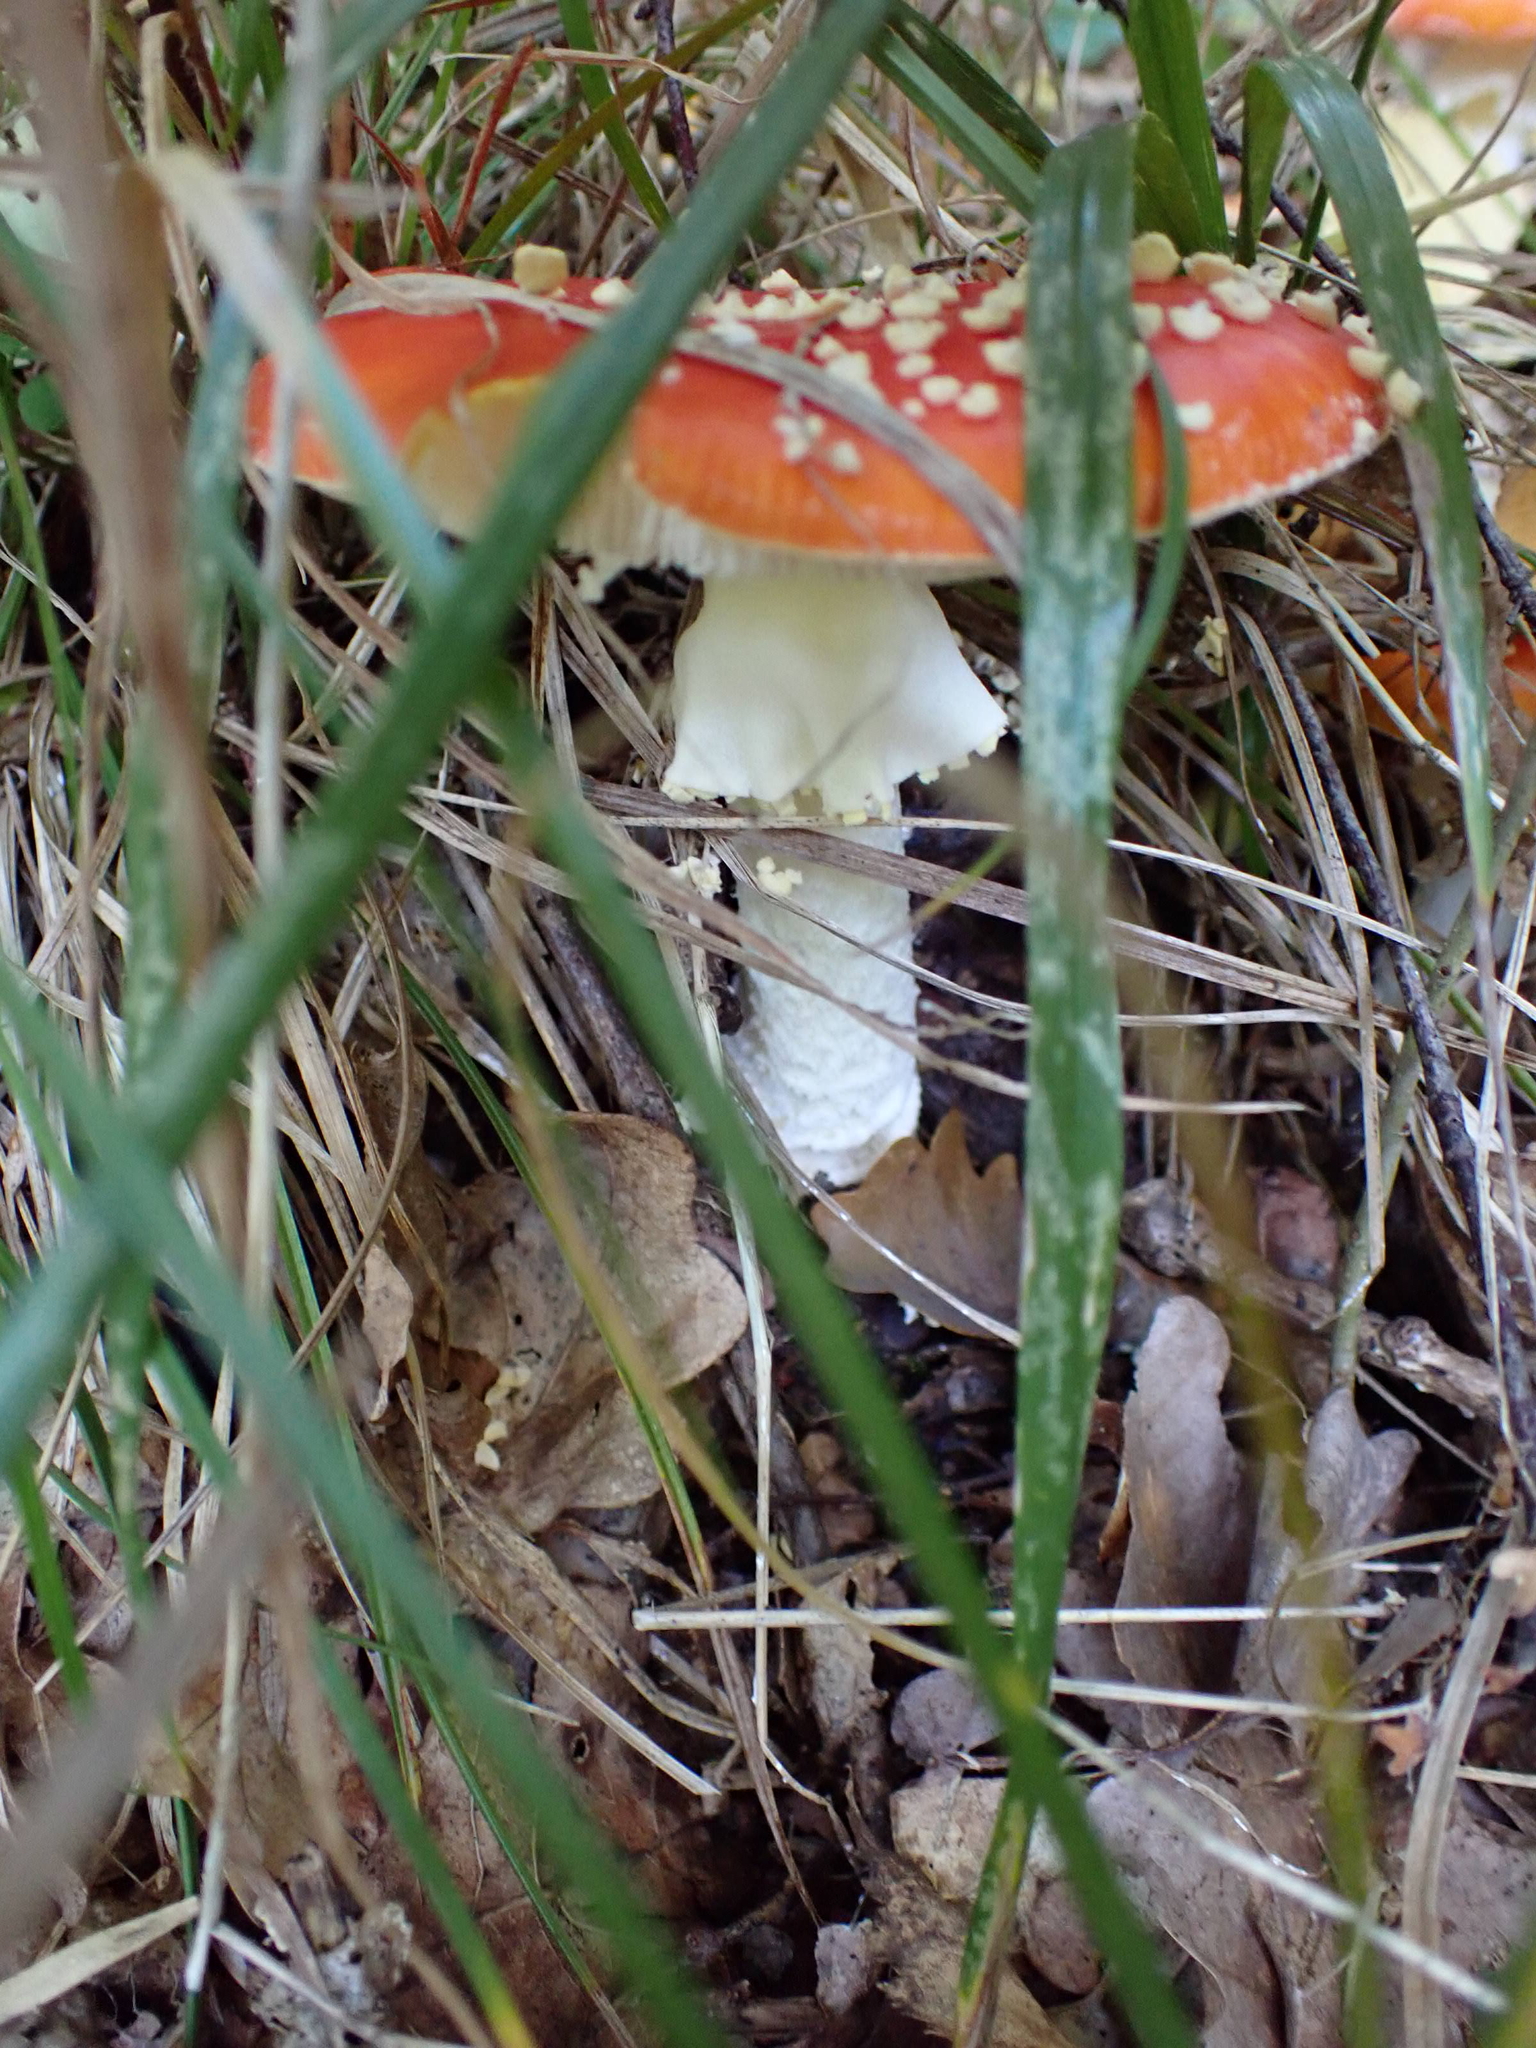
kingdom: Fungi
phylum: Basidiomycota
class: Agaricomycetes
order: Agaricales
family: Amanitaceae
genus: Amanita
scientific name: Amanita muscaria
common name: Fly agaric
